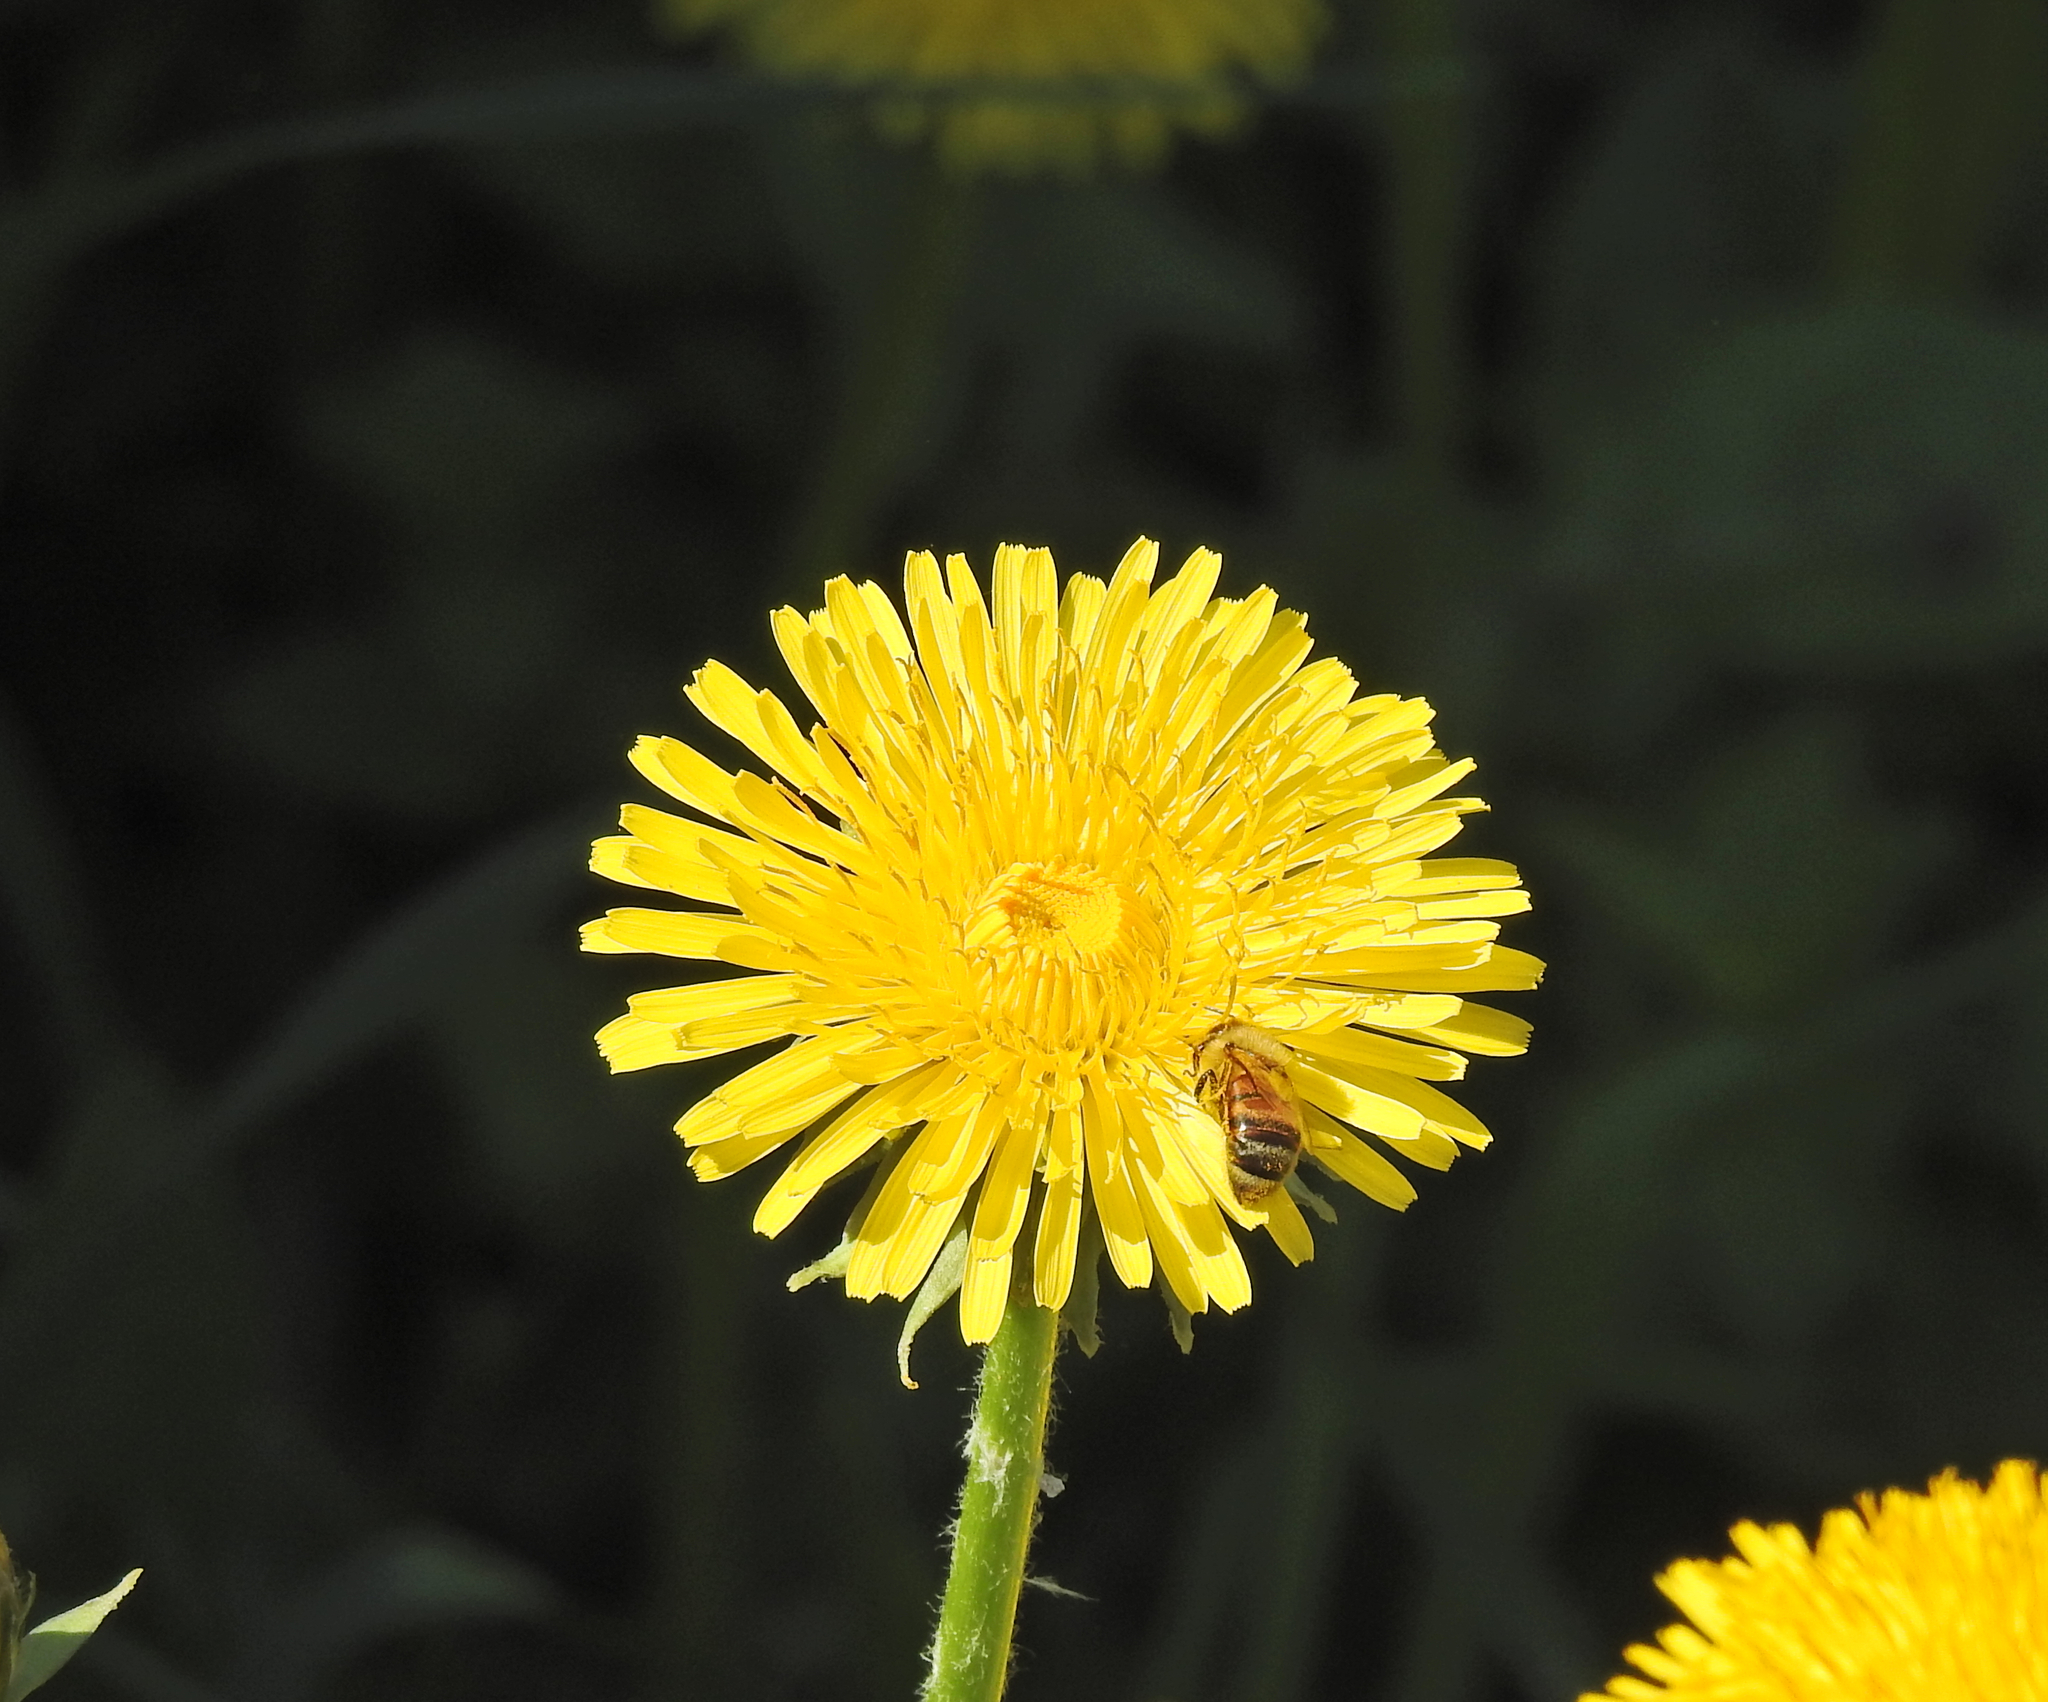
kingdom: Animalia
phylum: Arthropoda
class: Insecta
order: Hymenoptera
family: Apidae
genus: Apis
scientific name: Apis mellifera
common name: Honey bee
